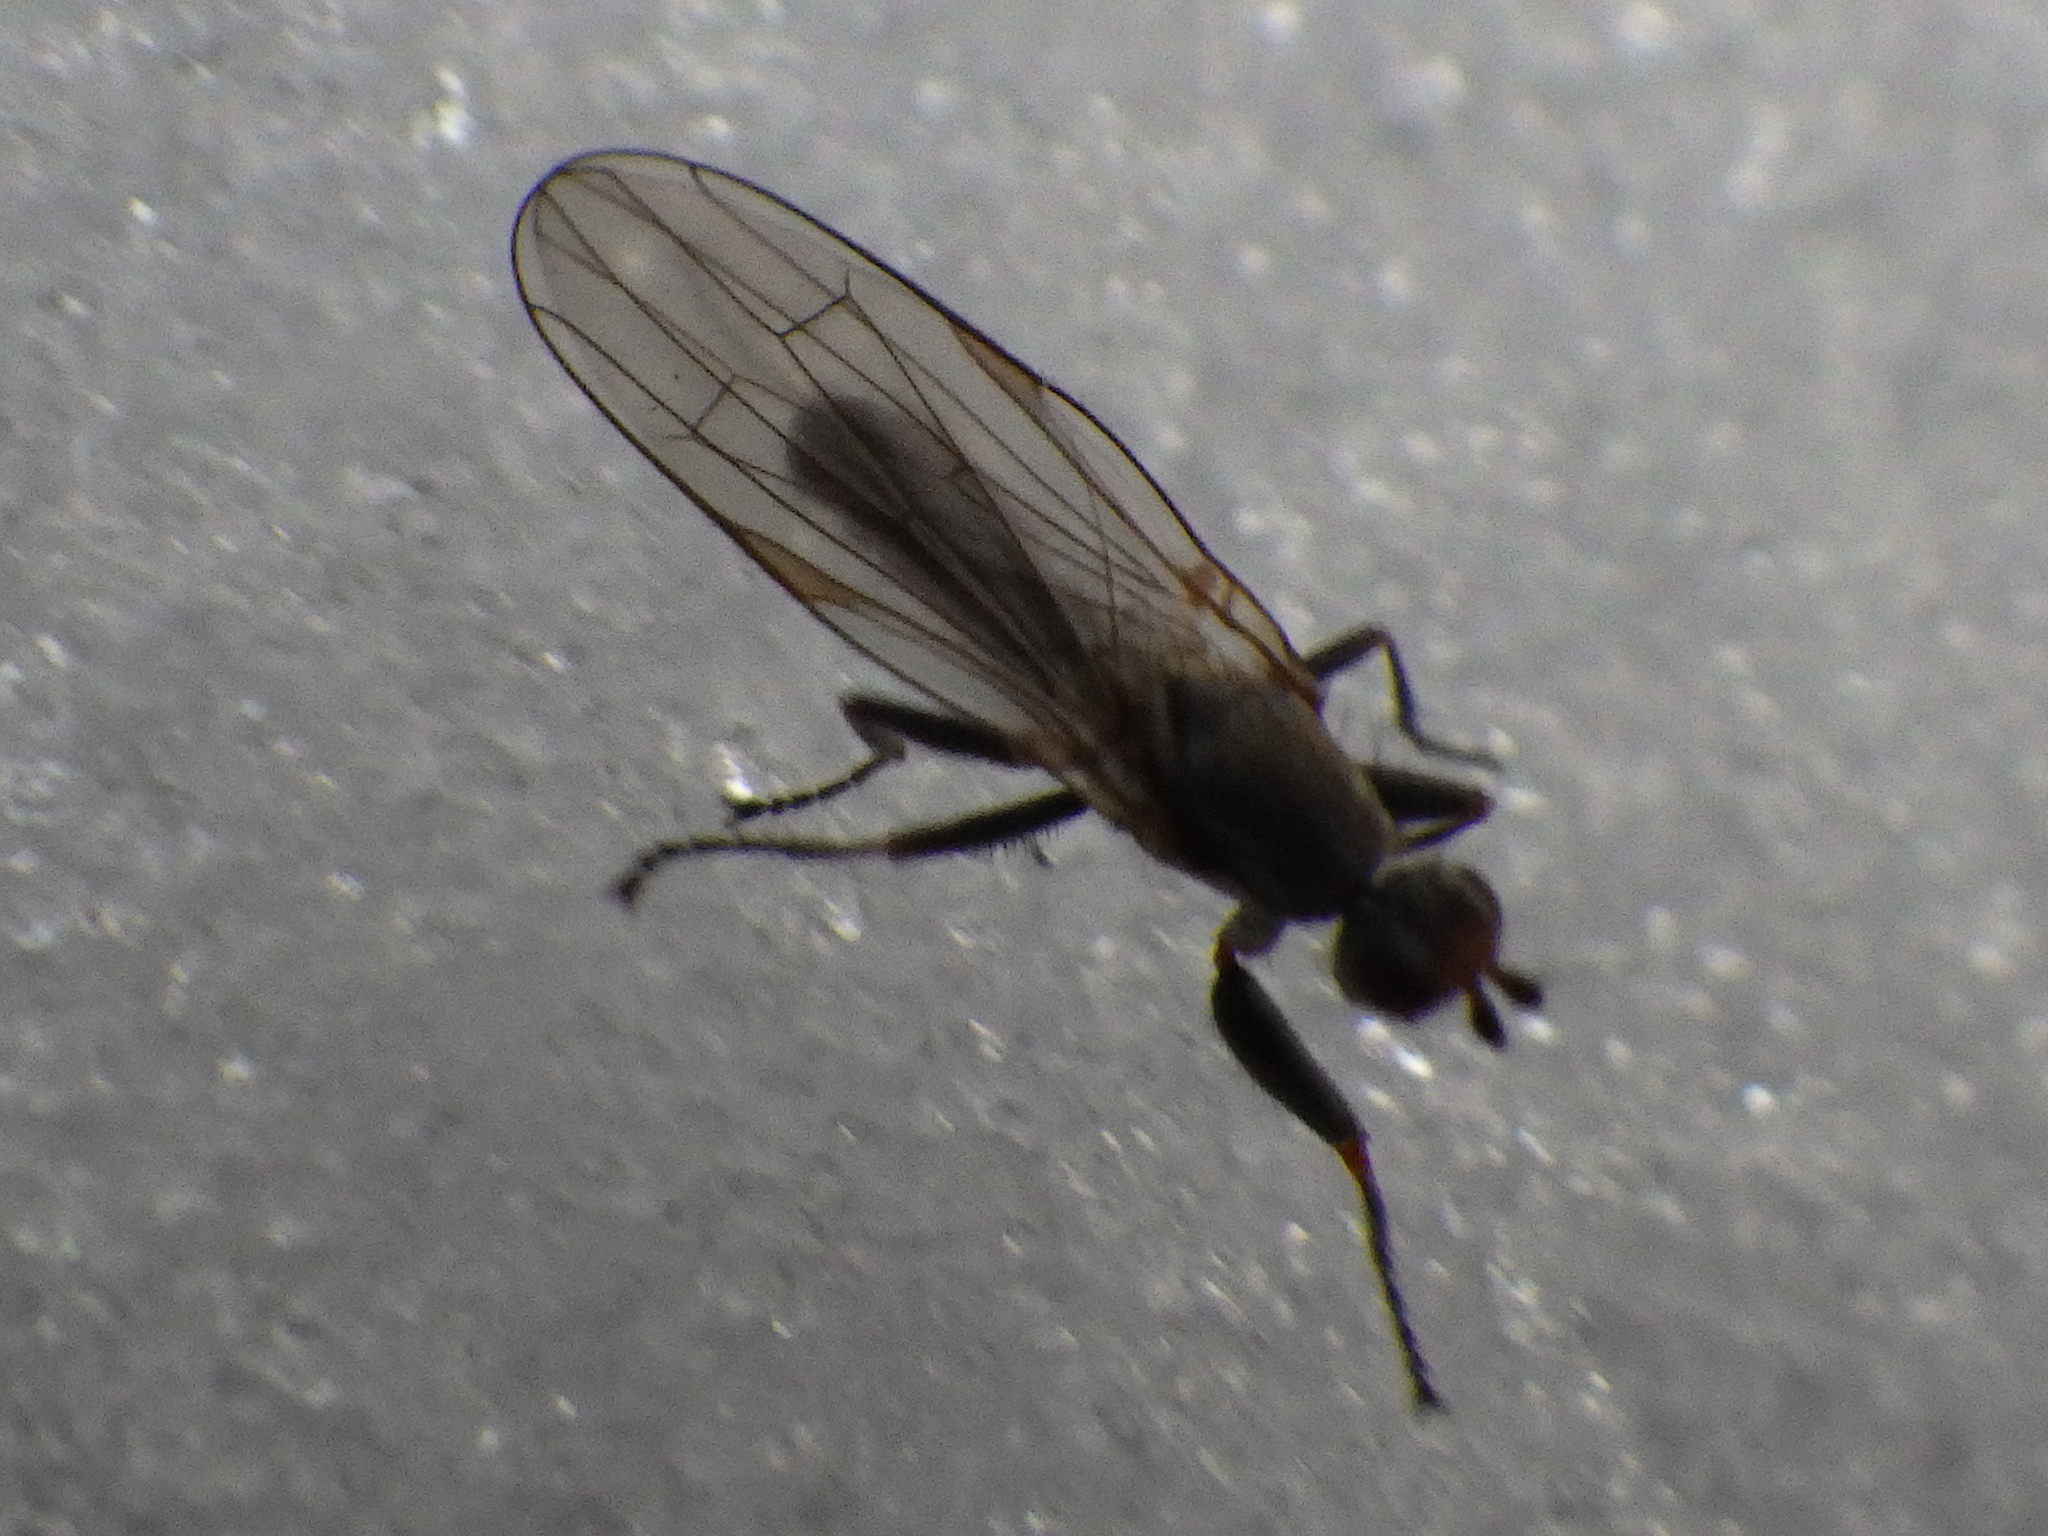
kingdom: Animalia
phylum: Arthropoda
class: Insecta
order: Diptera
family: Heleomyzidae
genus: Orbellia
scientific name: Orbellia petersoni
